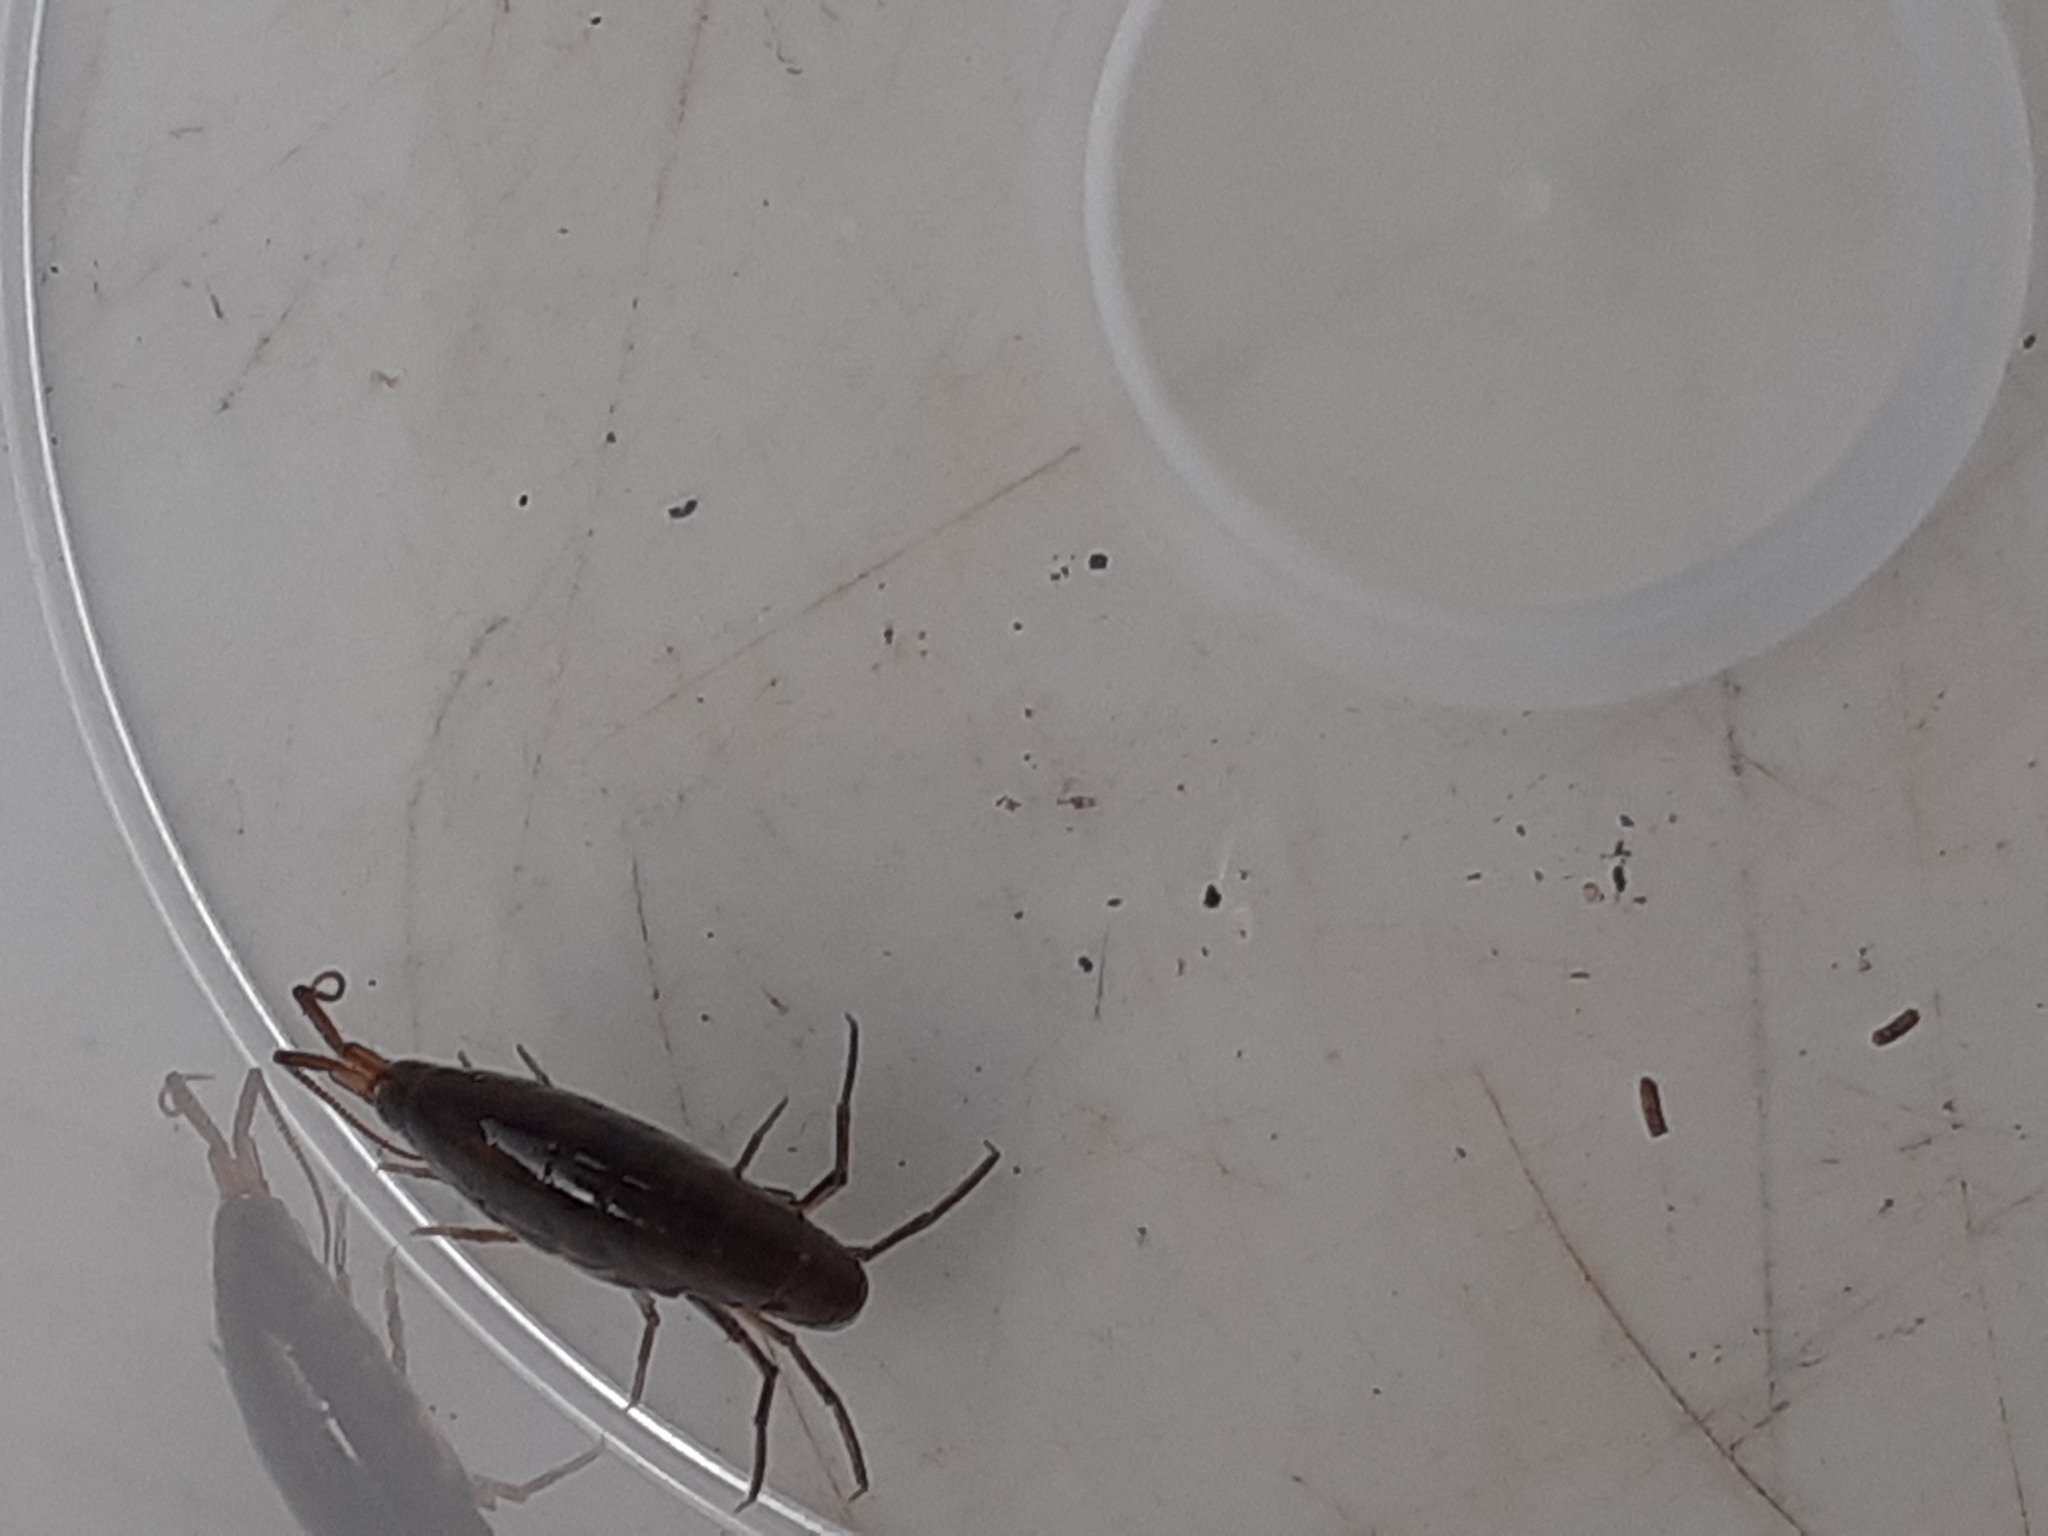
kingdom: Animalia
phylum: Arthropoda
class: Malacostraca
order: Amphipoda
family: Arcitalitridae
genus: Arcitalitrus
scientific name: Arcitalitrus dorrieni
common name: Landhopper
